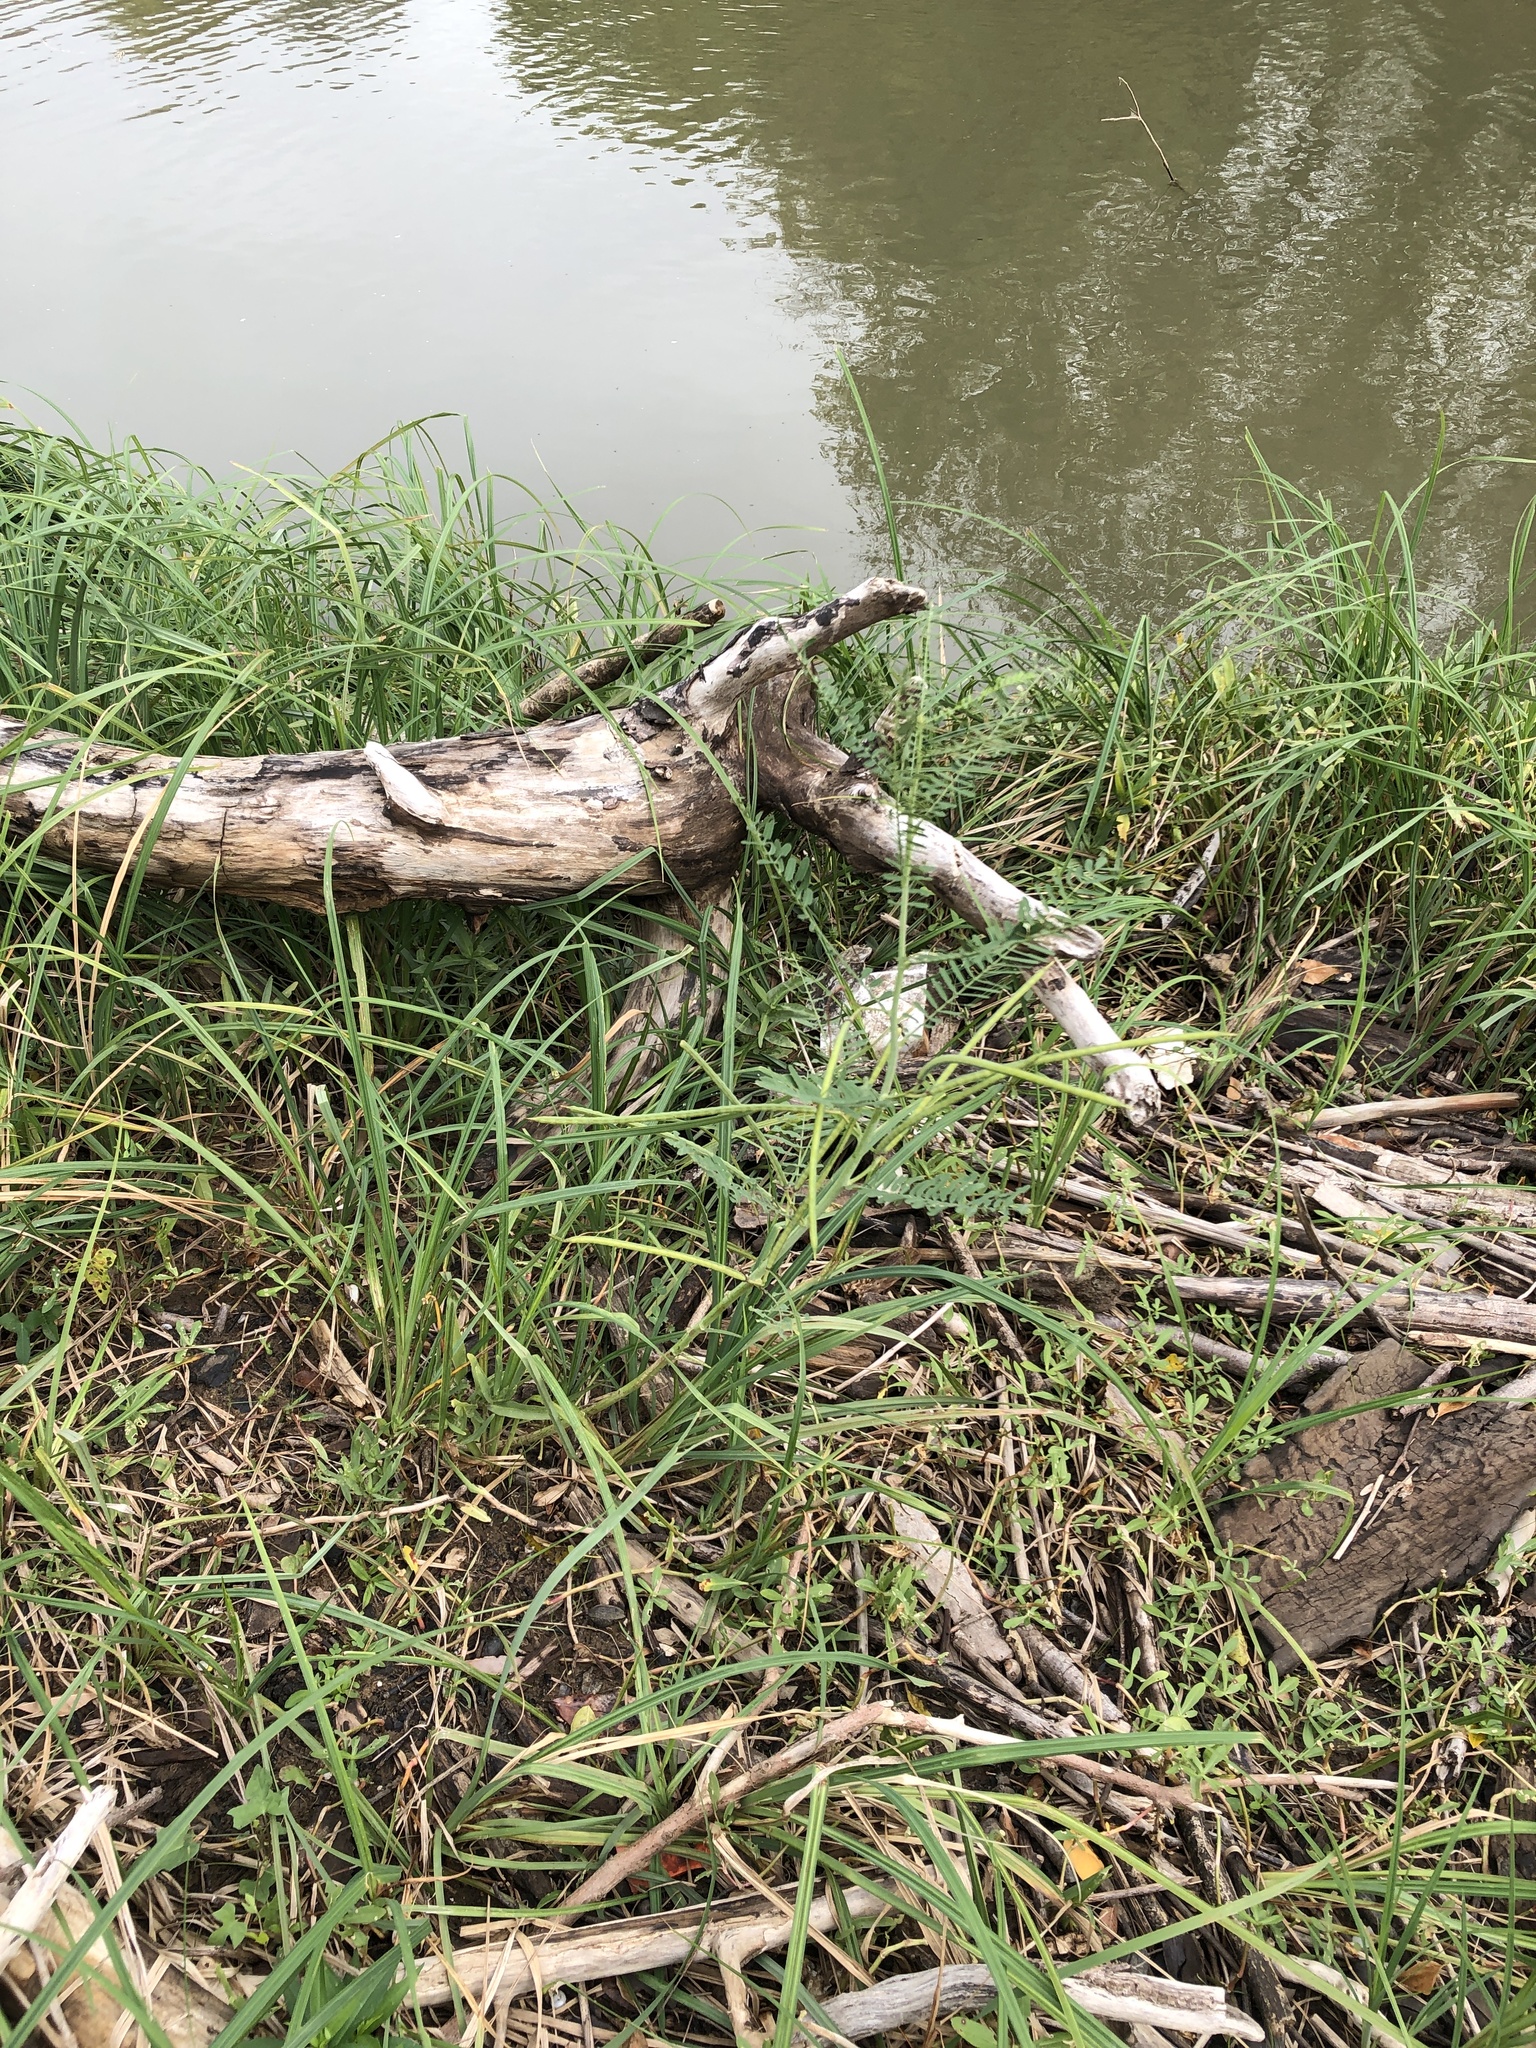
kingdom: Plantae
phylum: Tracheophyta
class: Magnoliopsida
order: Fabales
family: Fabaceae
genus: Sesbania
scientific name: Sesbania herbacea
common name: Bigpod sesbania
